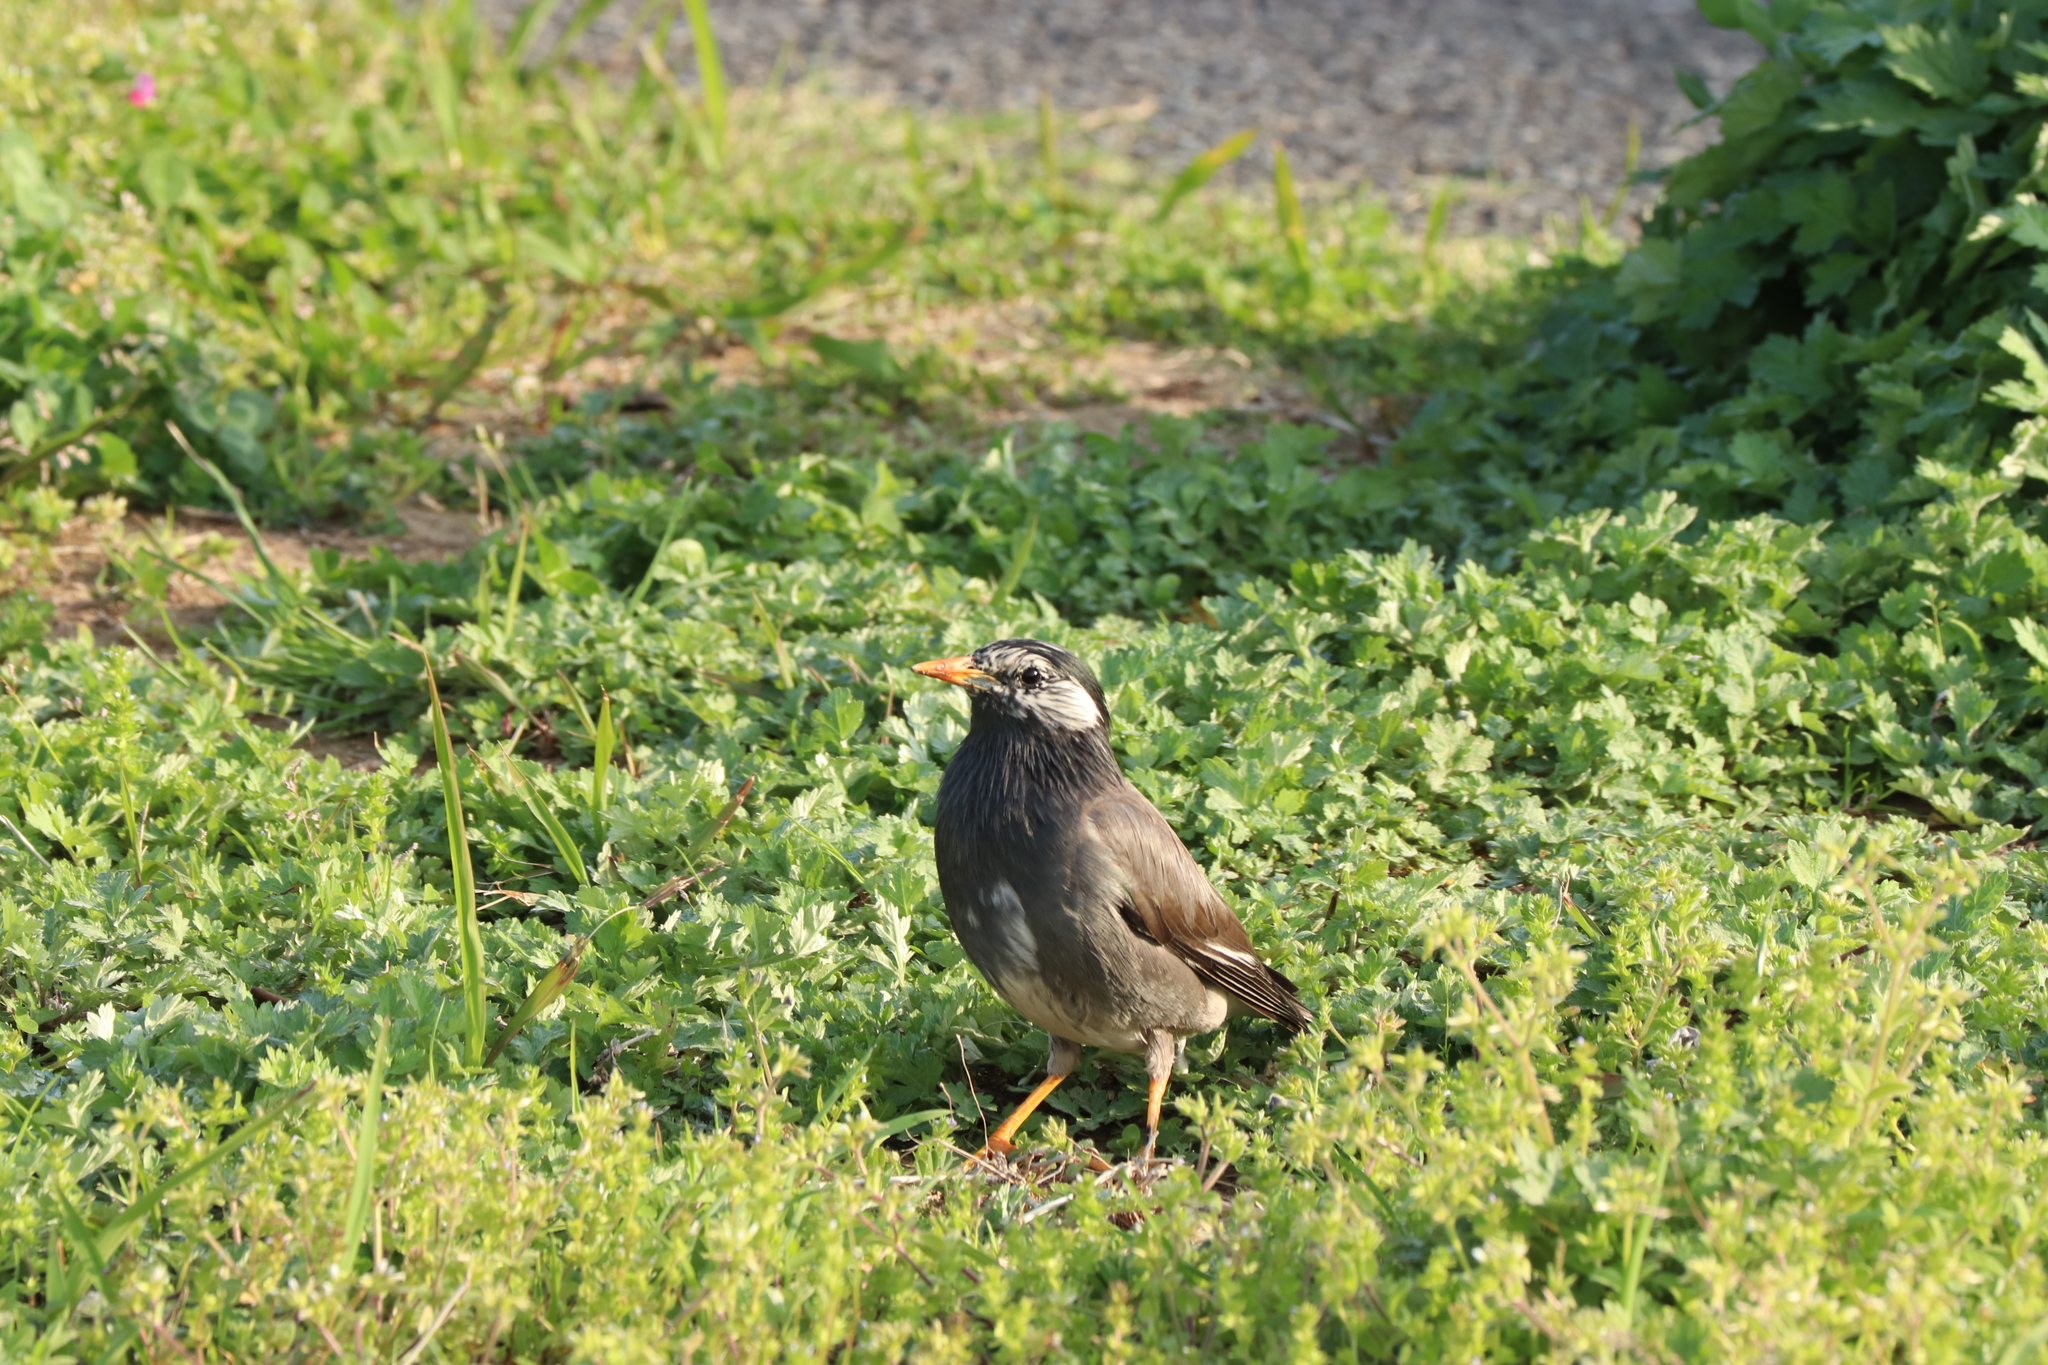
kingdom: Animalia
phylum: Chordata
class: Aves
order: Passeriformes
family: Sturnidae
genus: Spodiopsar
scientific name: Spodiopsar cineraceus
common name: White-cheeked starling
